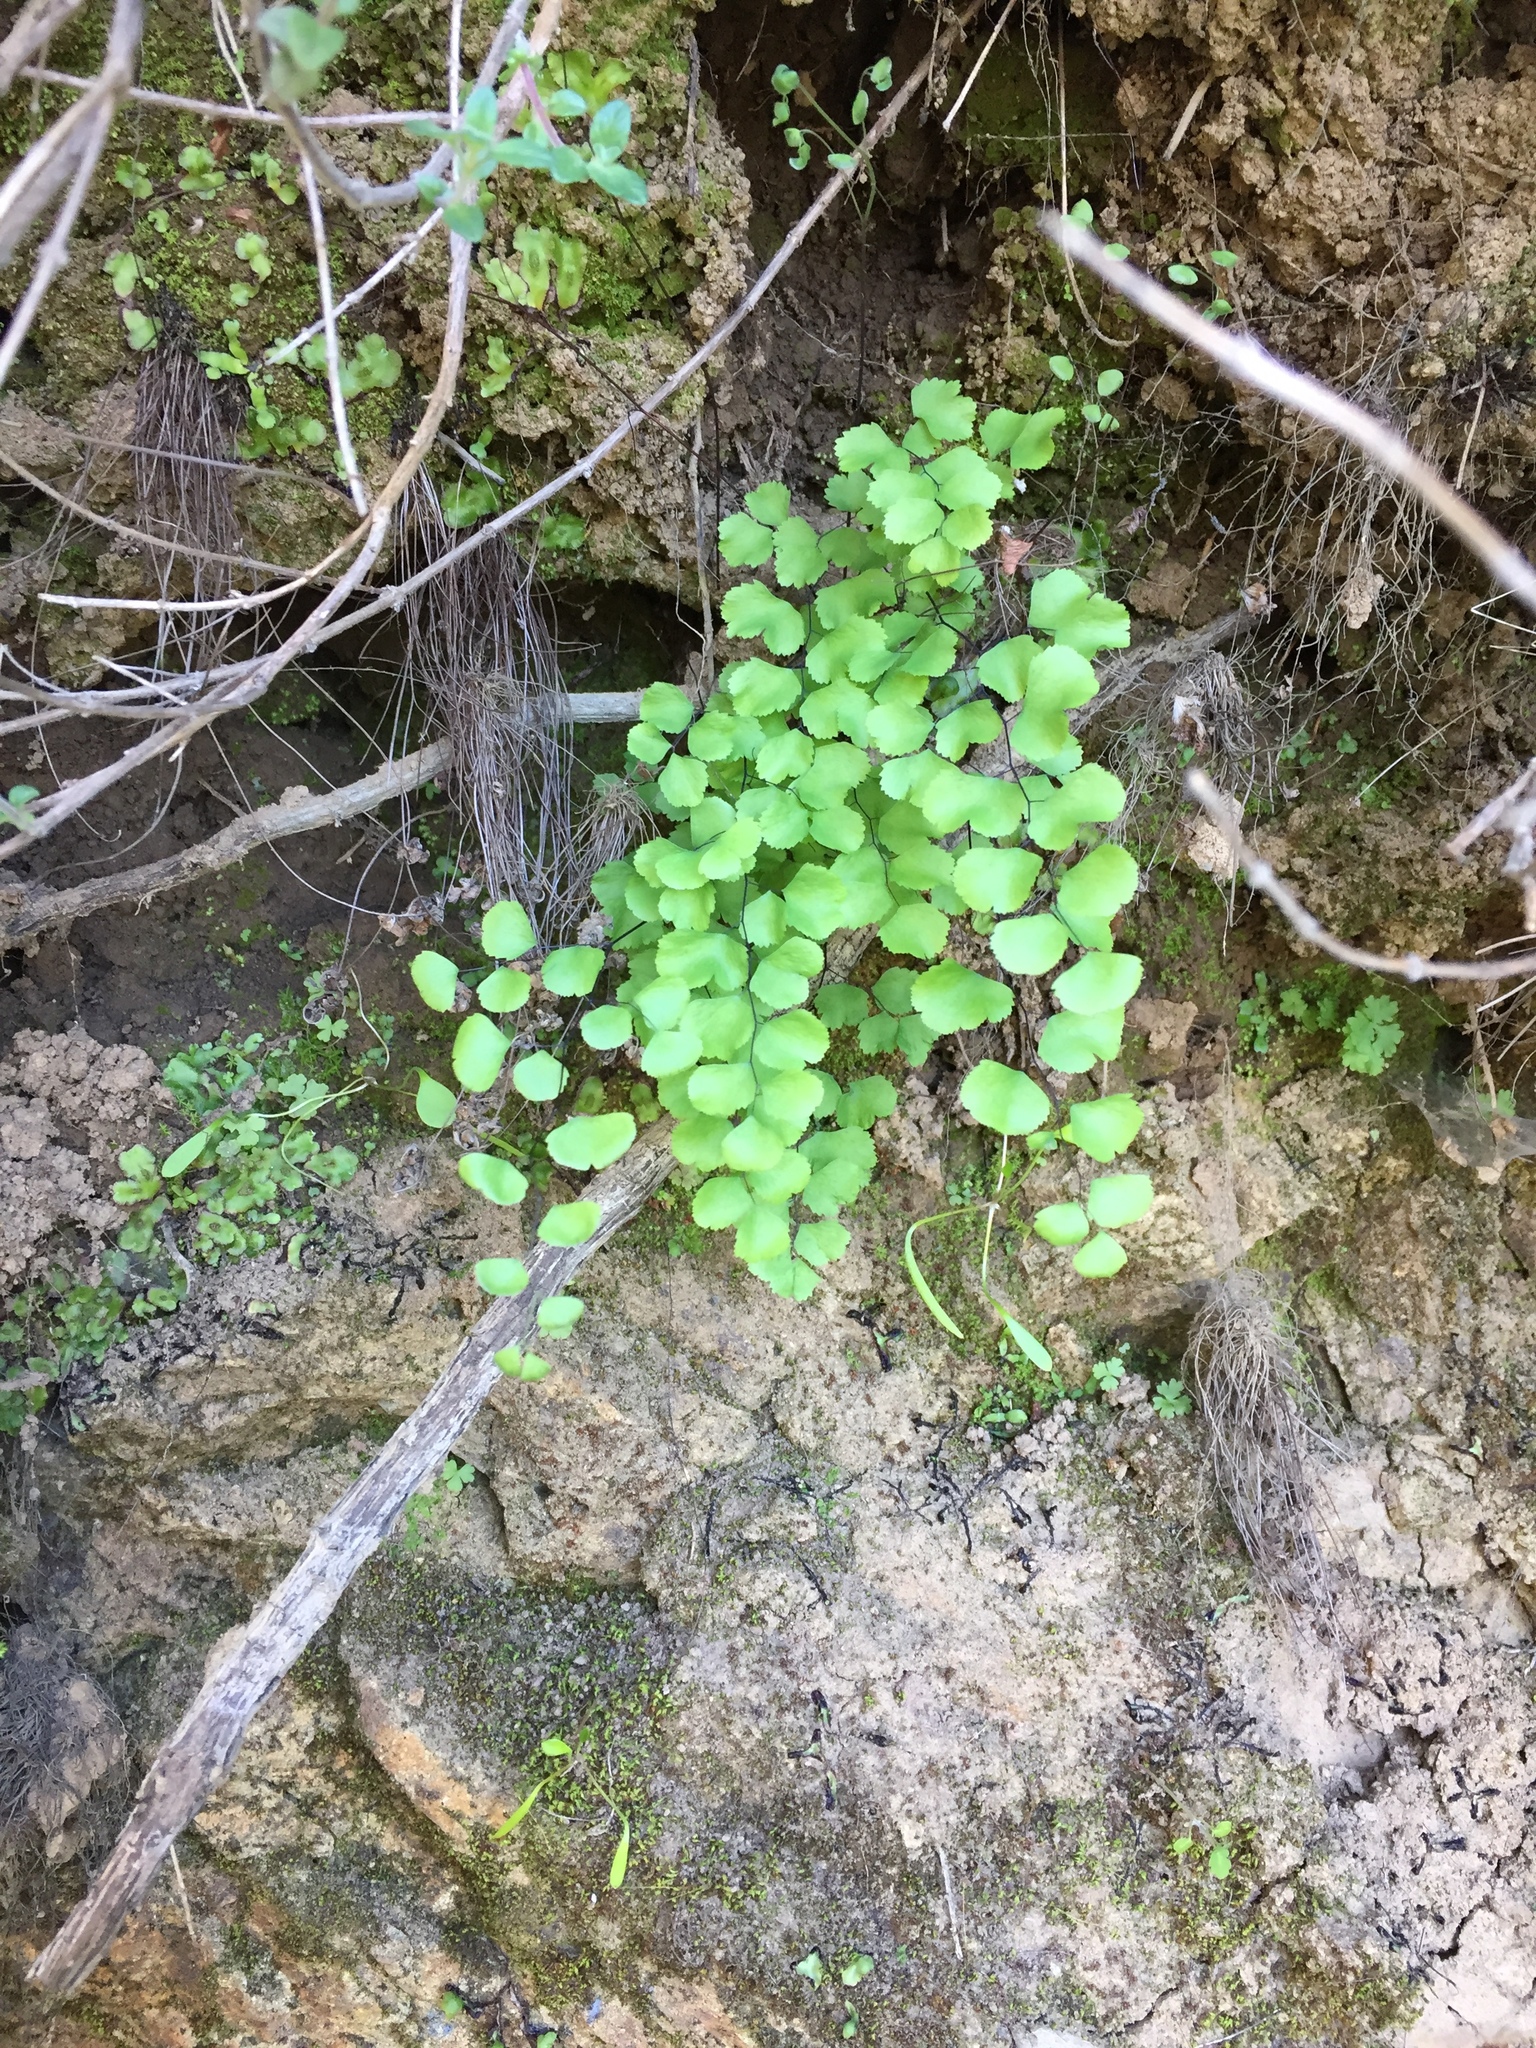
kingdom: Plantae
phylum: Tracheophyta
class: Polypodiopsida
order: Polypodiales
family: Pteridaceae
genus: Adiantum
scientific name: Adiantum jordanii
